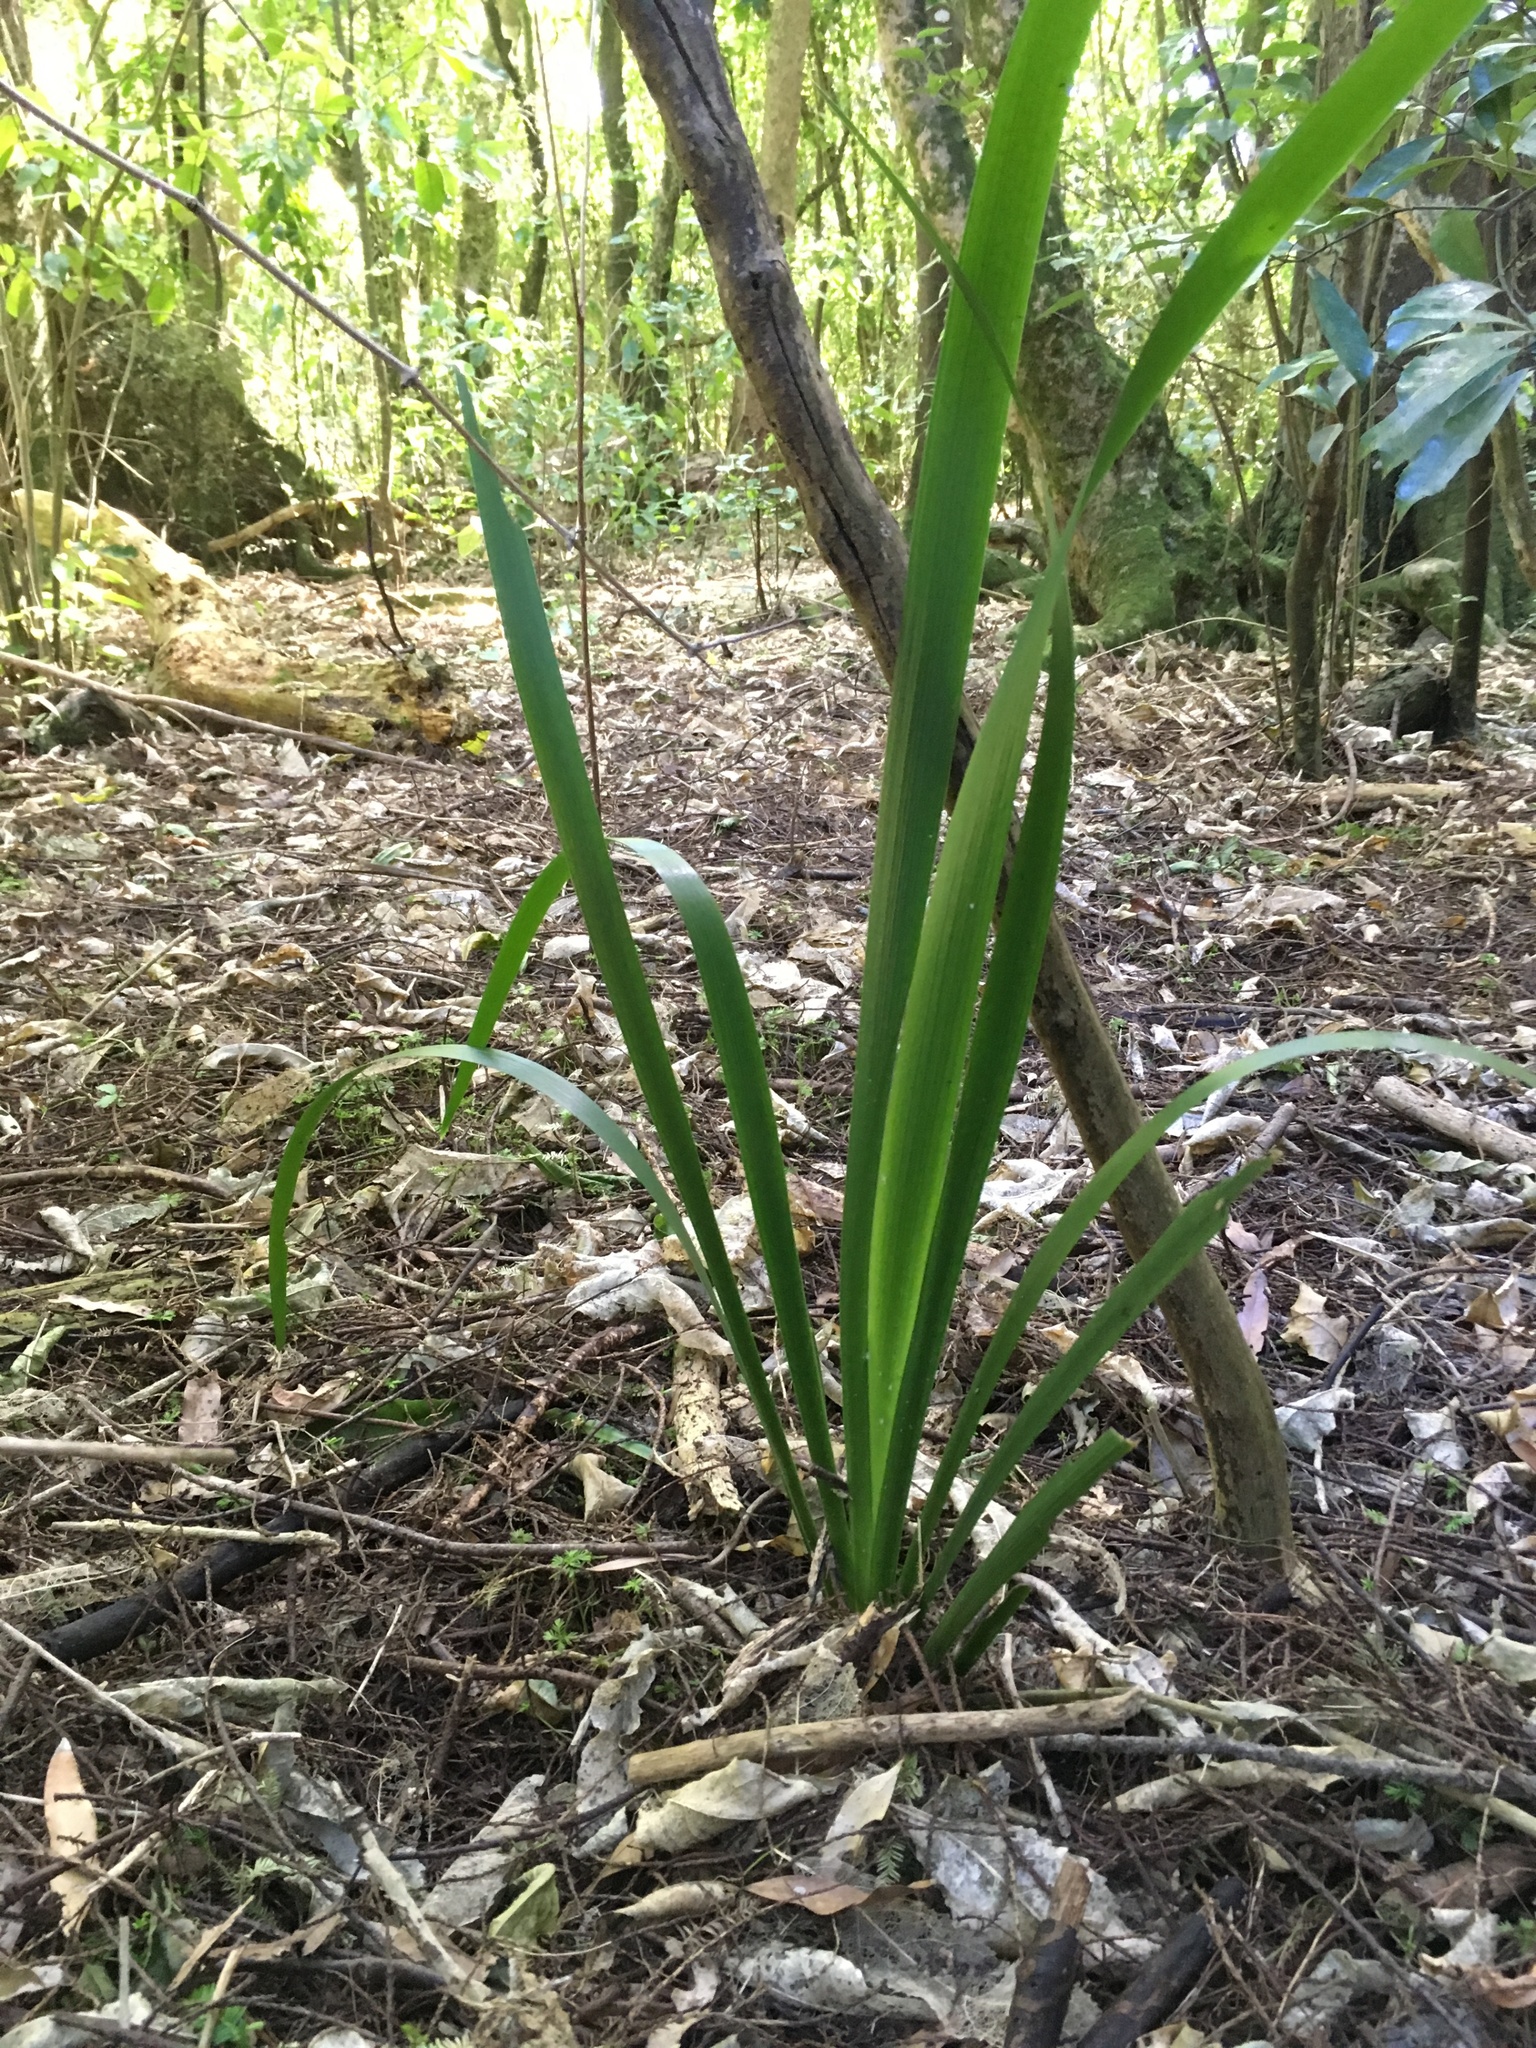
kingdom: Plantae
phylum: Tracheophyta
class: Liliopsida
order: Asparagales
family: Iridaceae
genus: Iris
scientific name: Iris foetidissima
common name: Stinking iris
